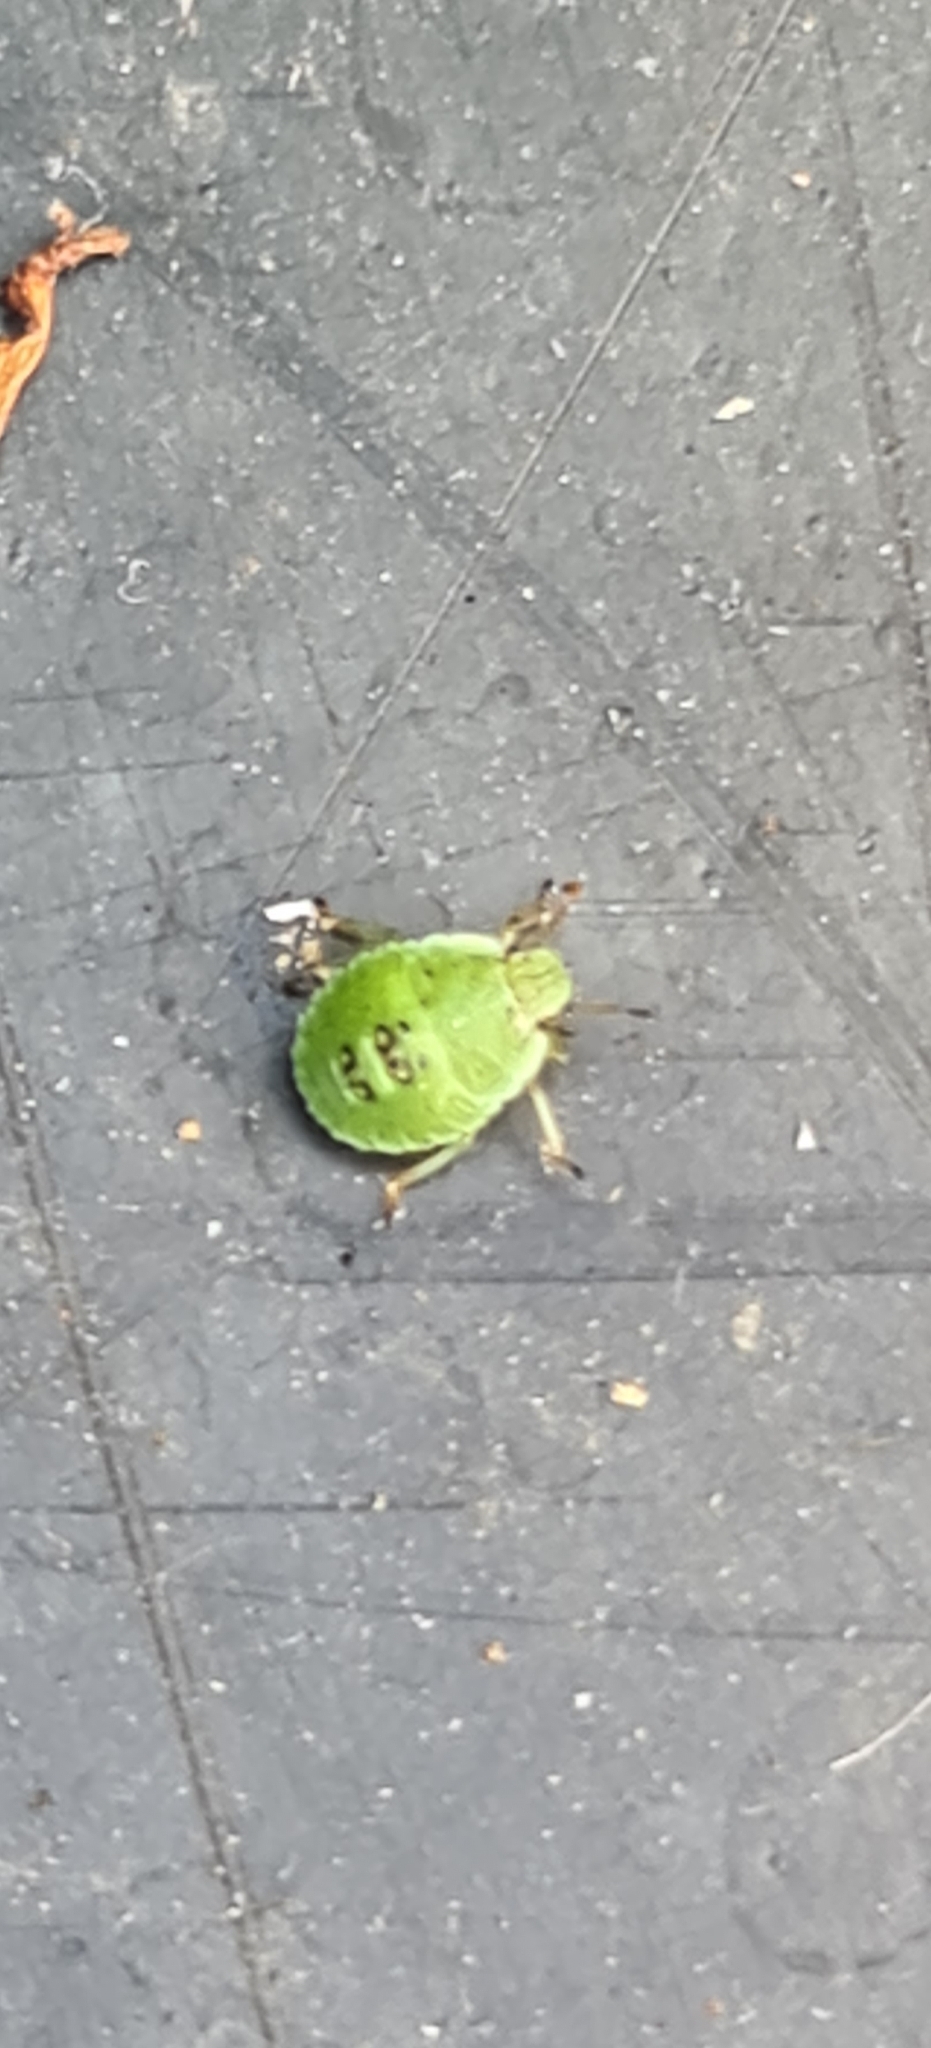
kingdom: Animalia
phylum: Arthropoda
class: Insecta
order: Hemiptera
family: Pentatomidae
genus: Palomena
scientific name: Palomena prasina
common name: Green shieldbug
